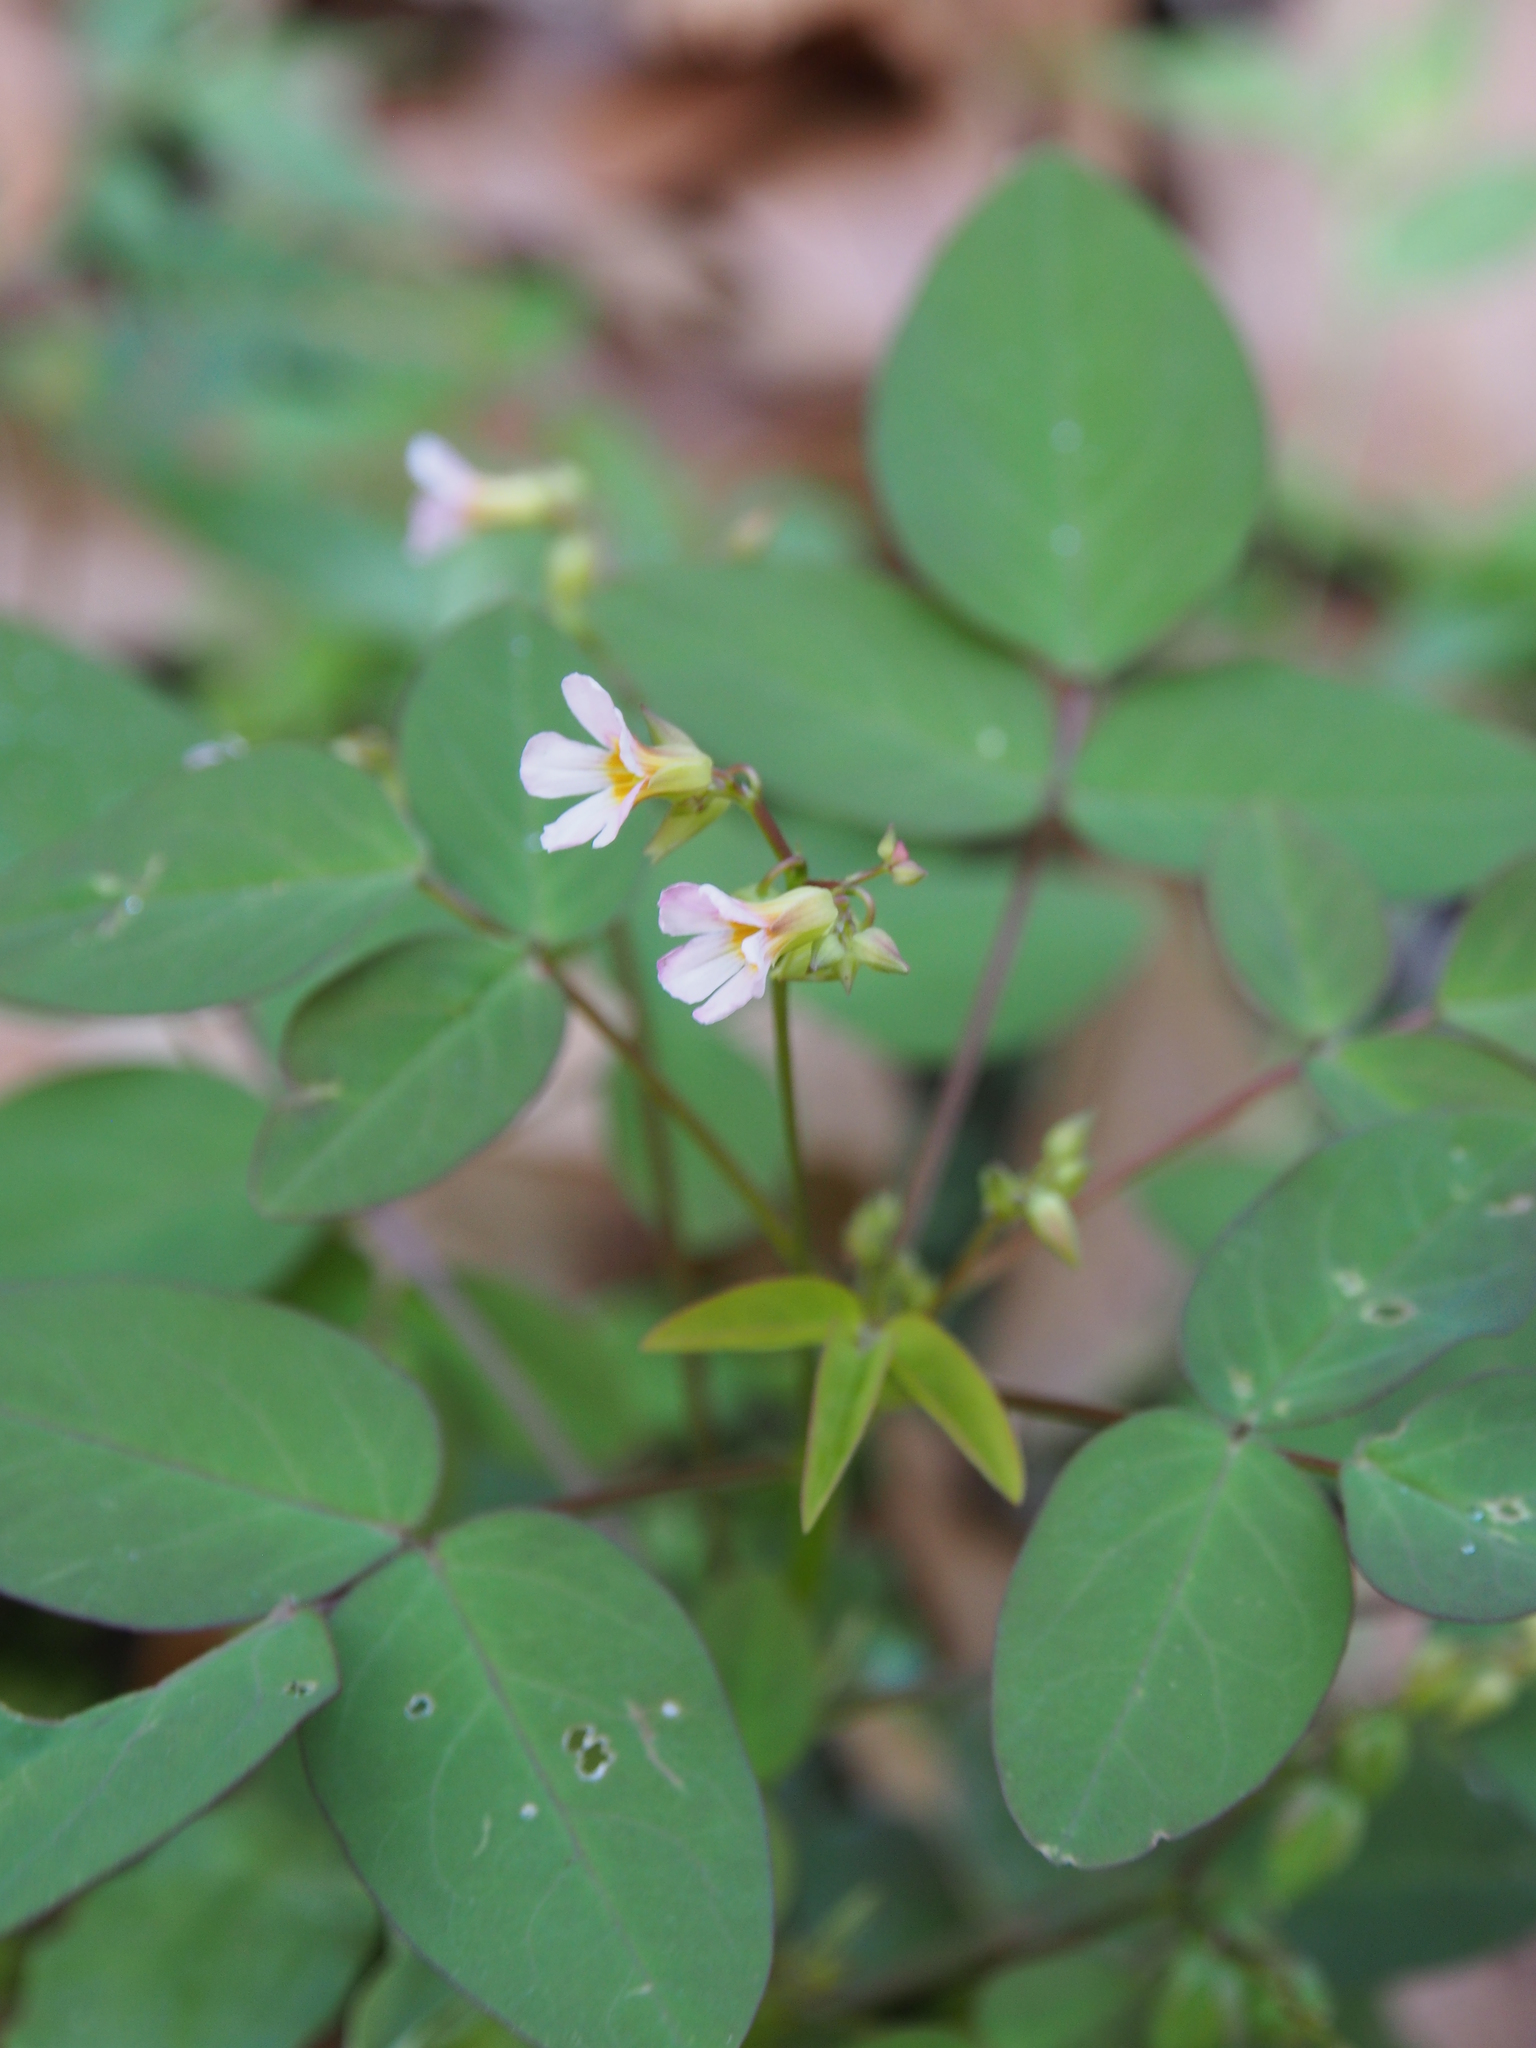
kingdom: Plantae
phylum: Tracheophyta
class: Magnoliopsida
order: Oxalidales
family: Oxalidaceae
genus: Oxalis
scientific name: Oxalis barrelieri
